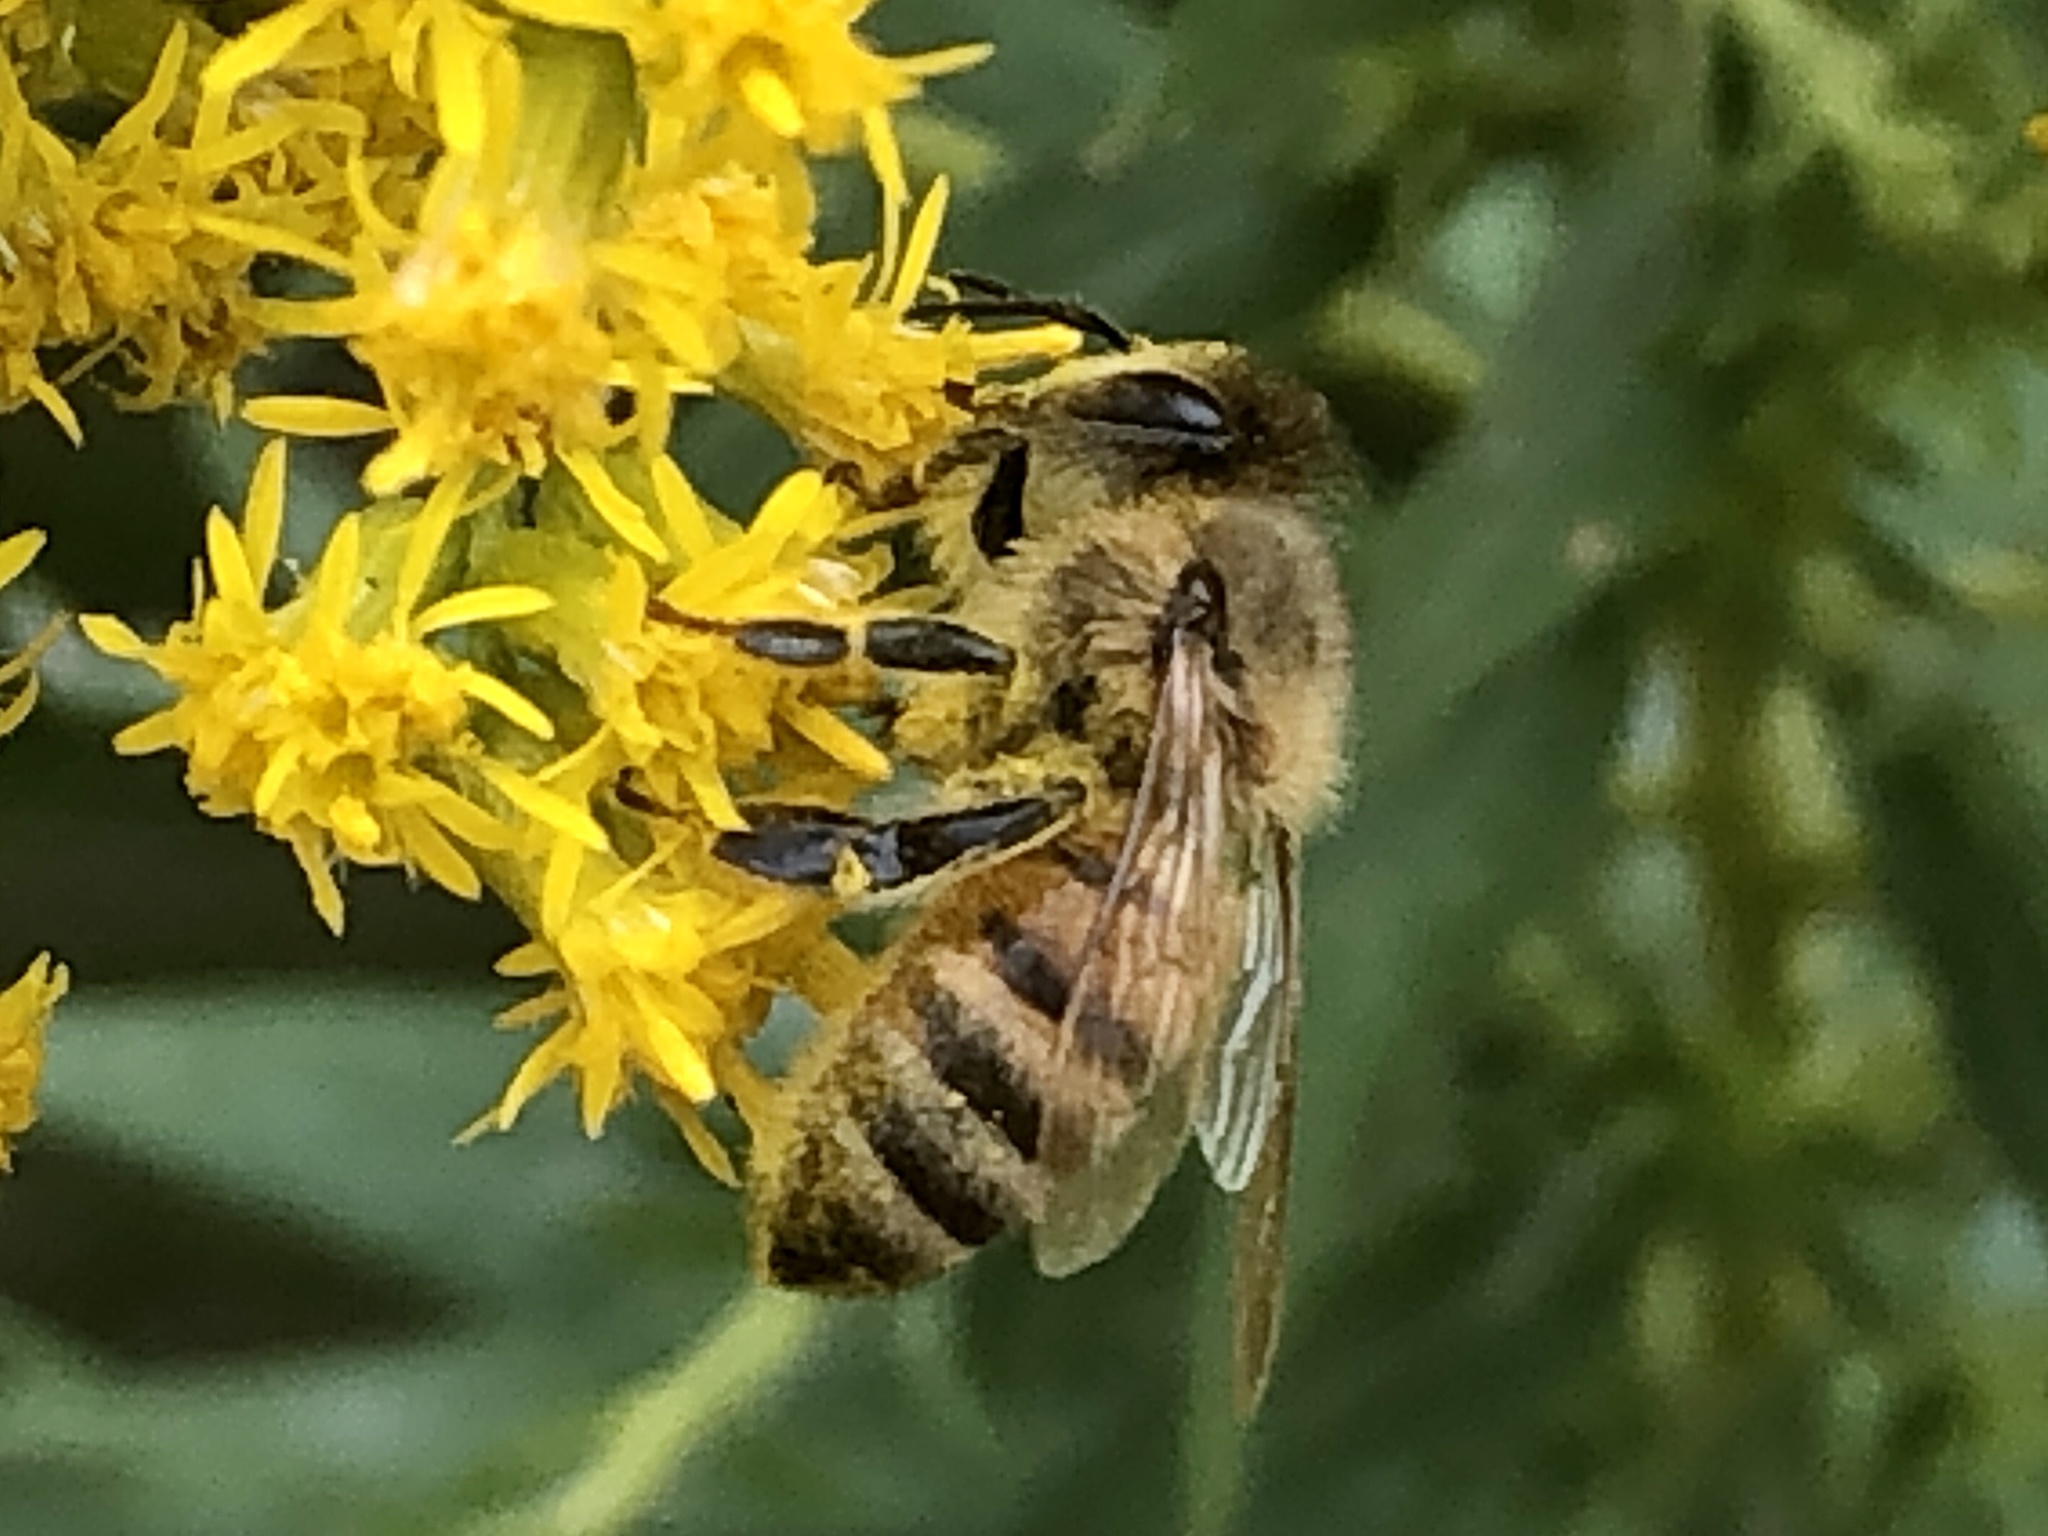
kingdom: Animalia
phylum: Arthropoda
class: Insecta
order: Hymenoptera
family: Apidae
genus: Apis
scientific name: Apis mellifera
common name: Honey bee
